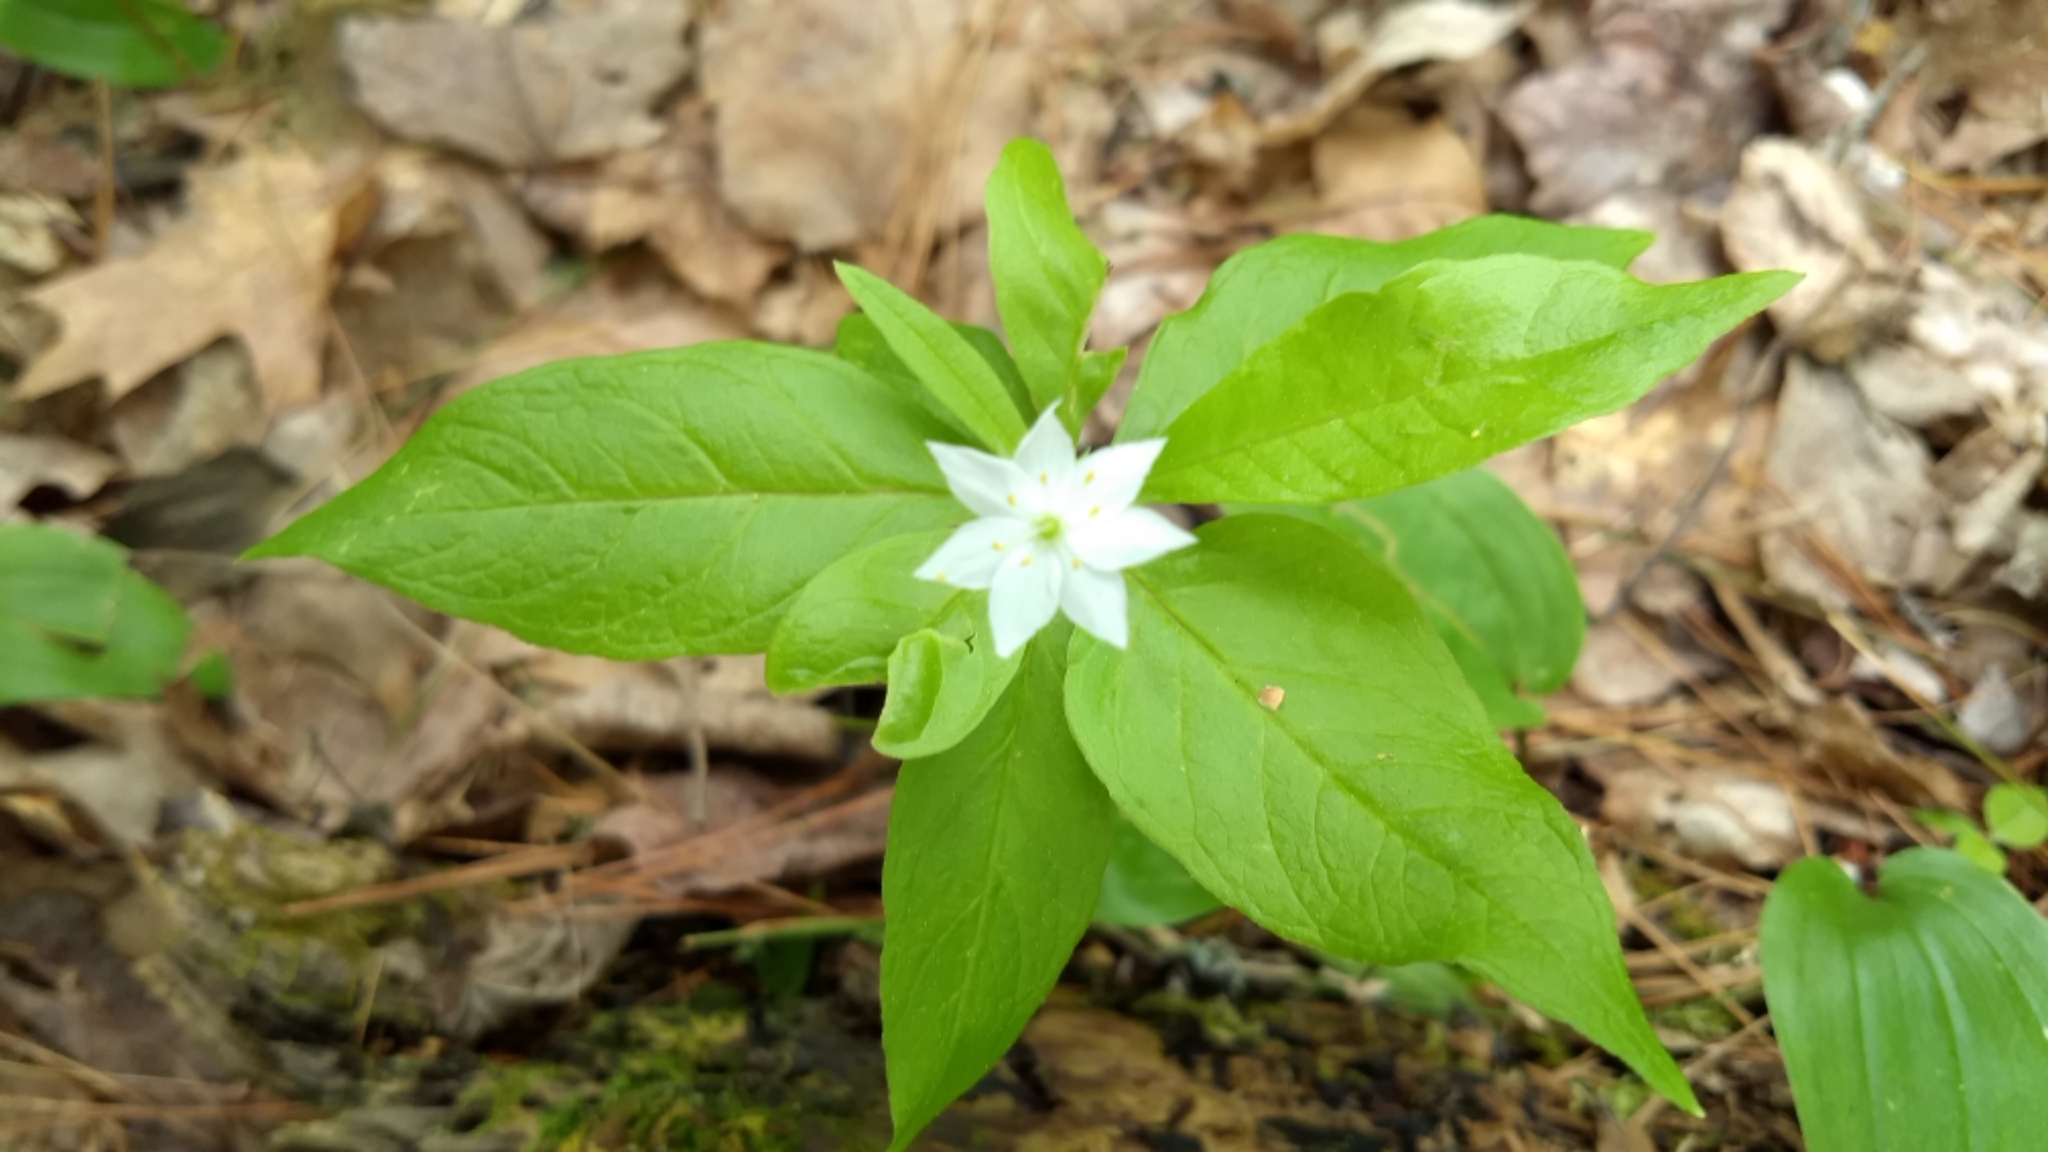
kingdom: Plantae
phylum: Tracheophyta
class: Magnoliopsida
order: Ericales
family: Primulaceae
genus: Lysimachia
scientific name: Lysimachia borealis
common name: American starflower
